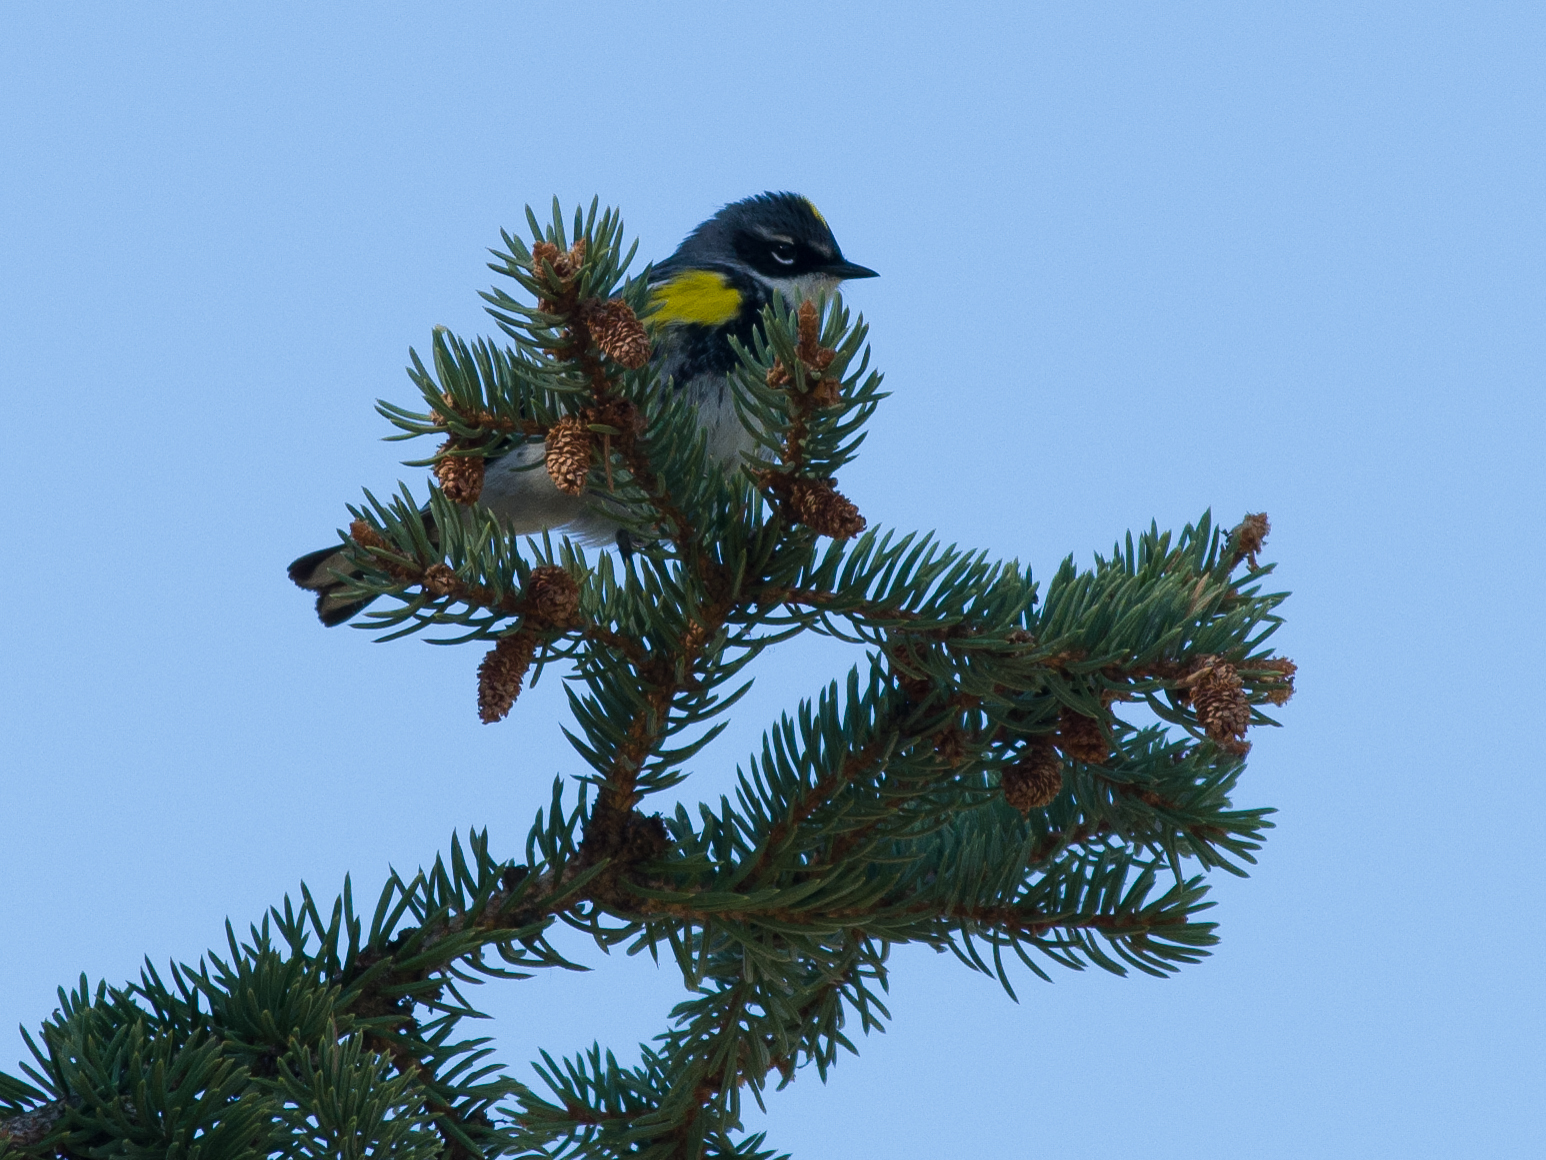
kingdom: Animalia
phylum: Chordata
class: Aves
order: Passeriformes
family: Parulidae
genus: Setophaga
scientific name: Setophaga coronata
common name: Myrtle warbler
